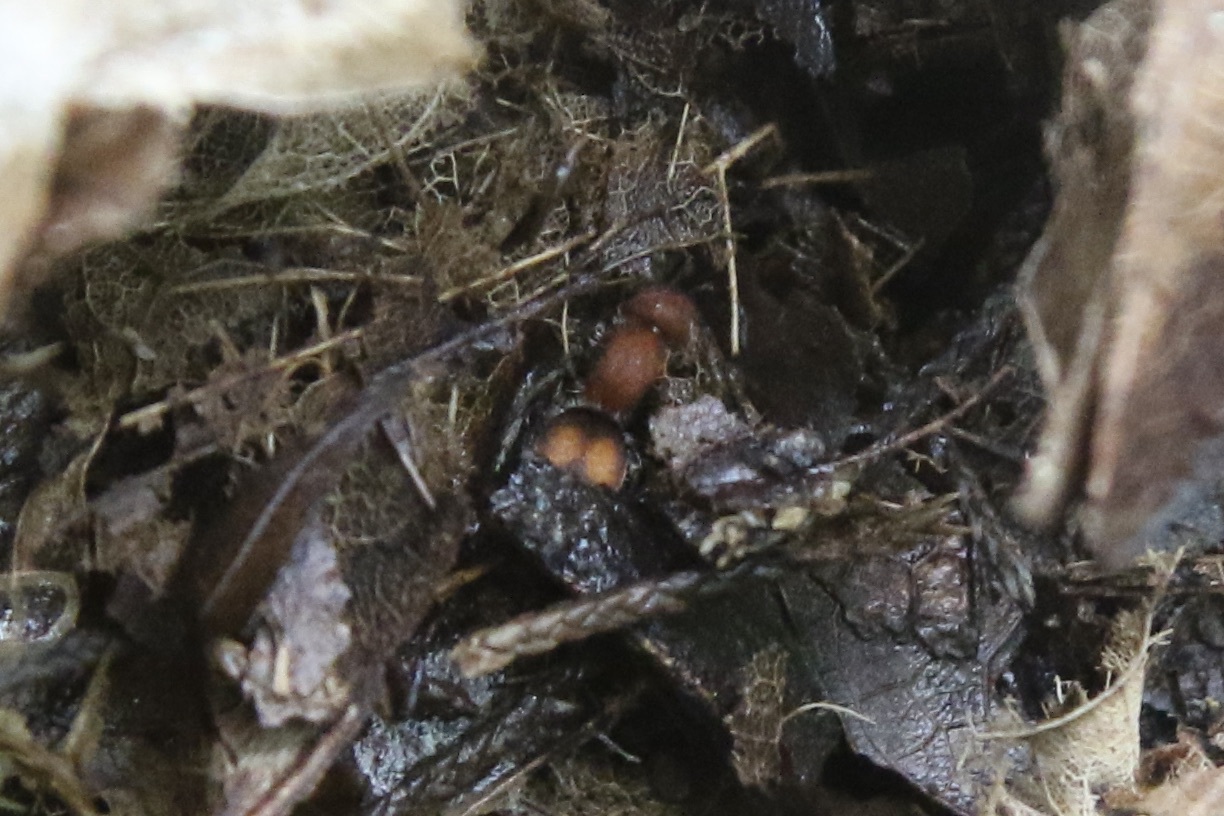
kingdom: Animalia
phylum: Arthropoda
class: Insecta
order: Hymenoptera
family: Mutillidae
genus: Pseudomethoca
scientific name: Pseudomethoca
